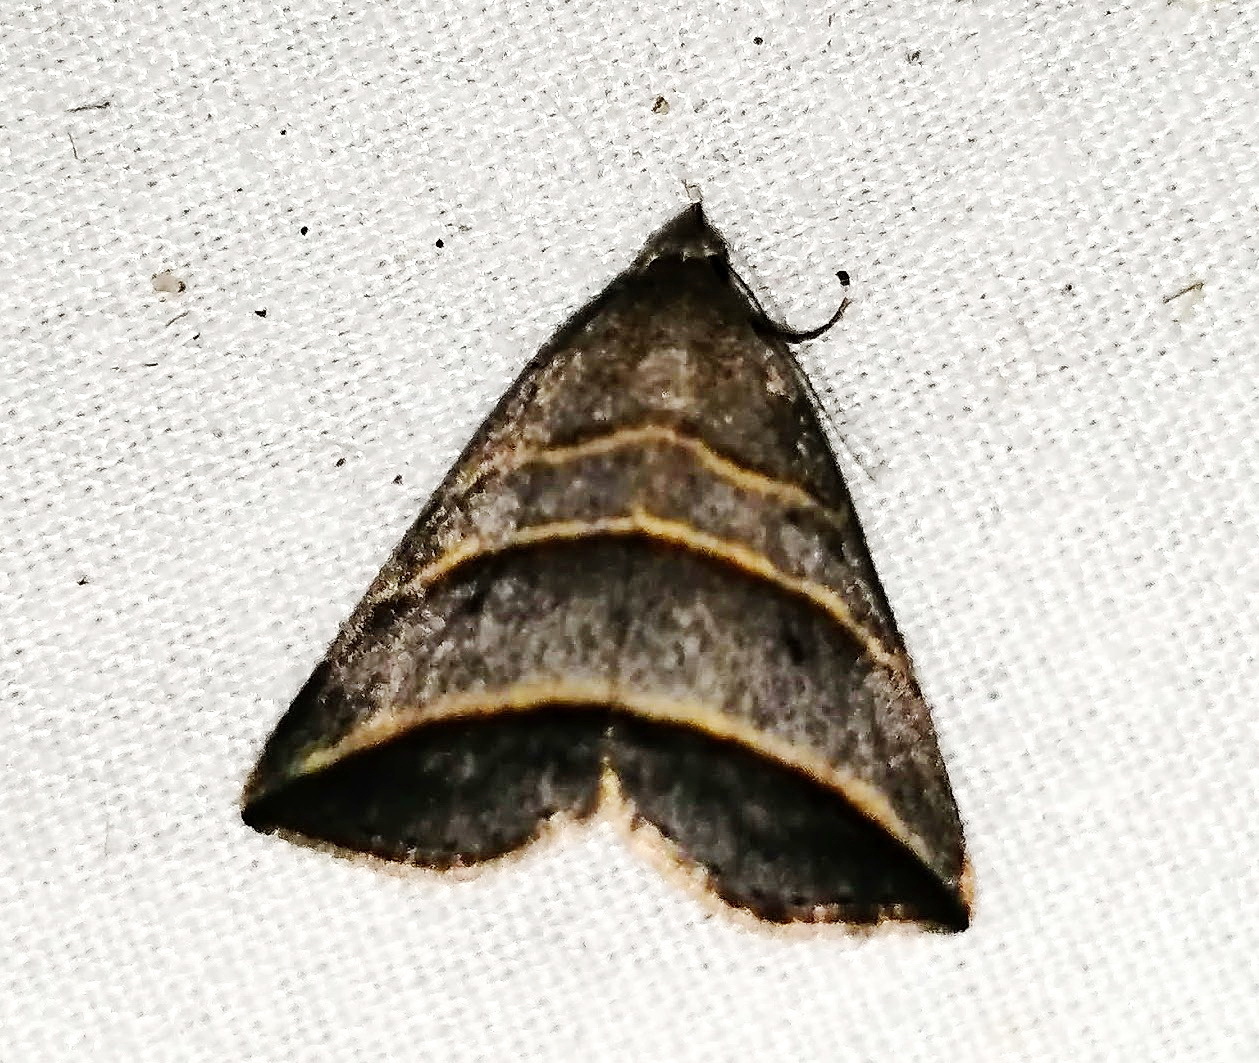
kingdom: Animalia
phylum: Arthropoda
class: Insecta
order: Lepidoptera
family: Erebidae
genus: Colobochyla
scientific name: Colobochyla interpuncta
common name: Yellow-lined owlet
